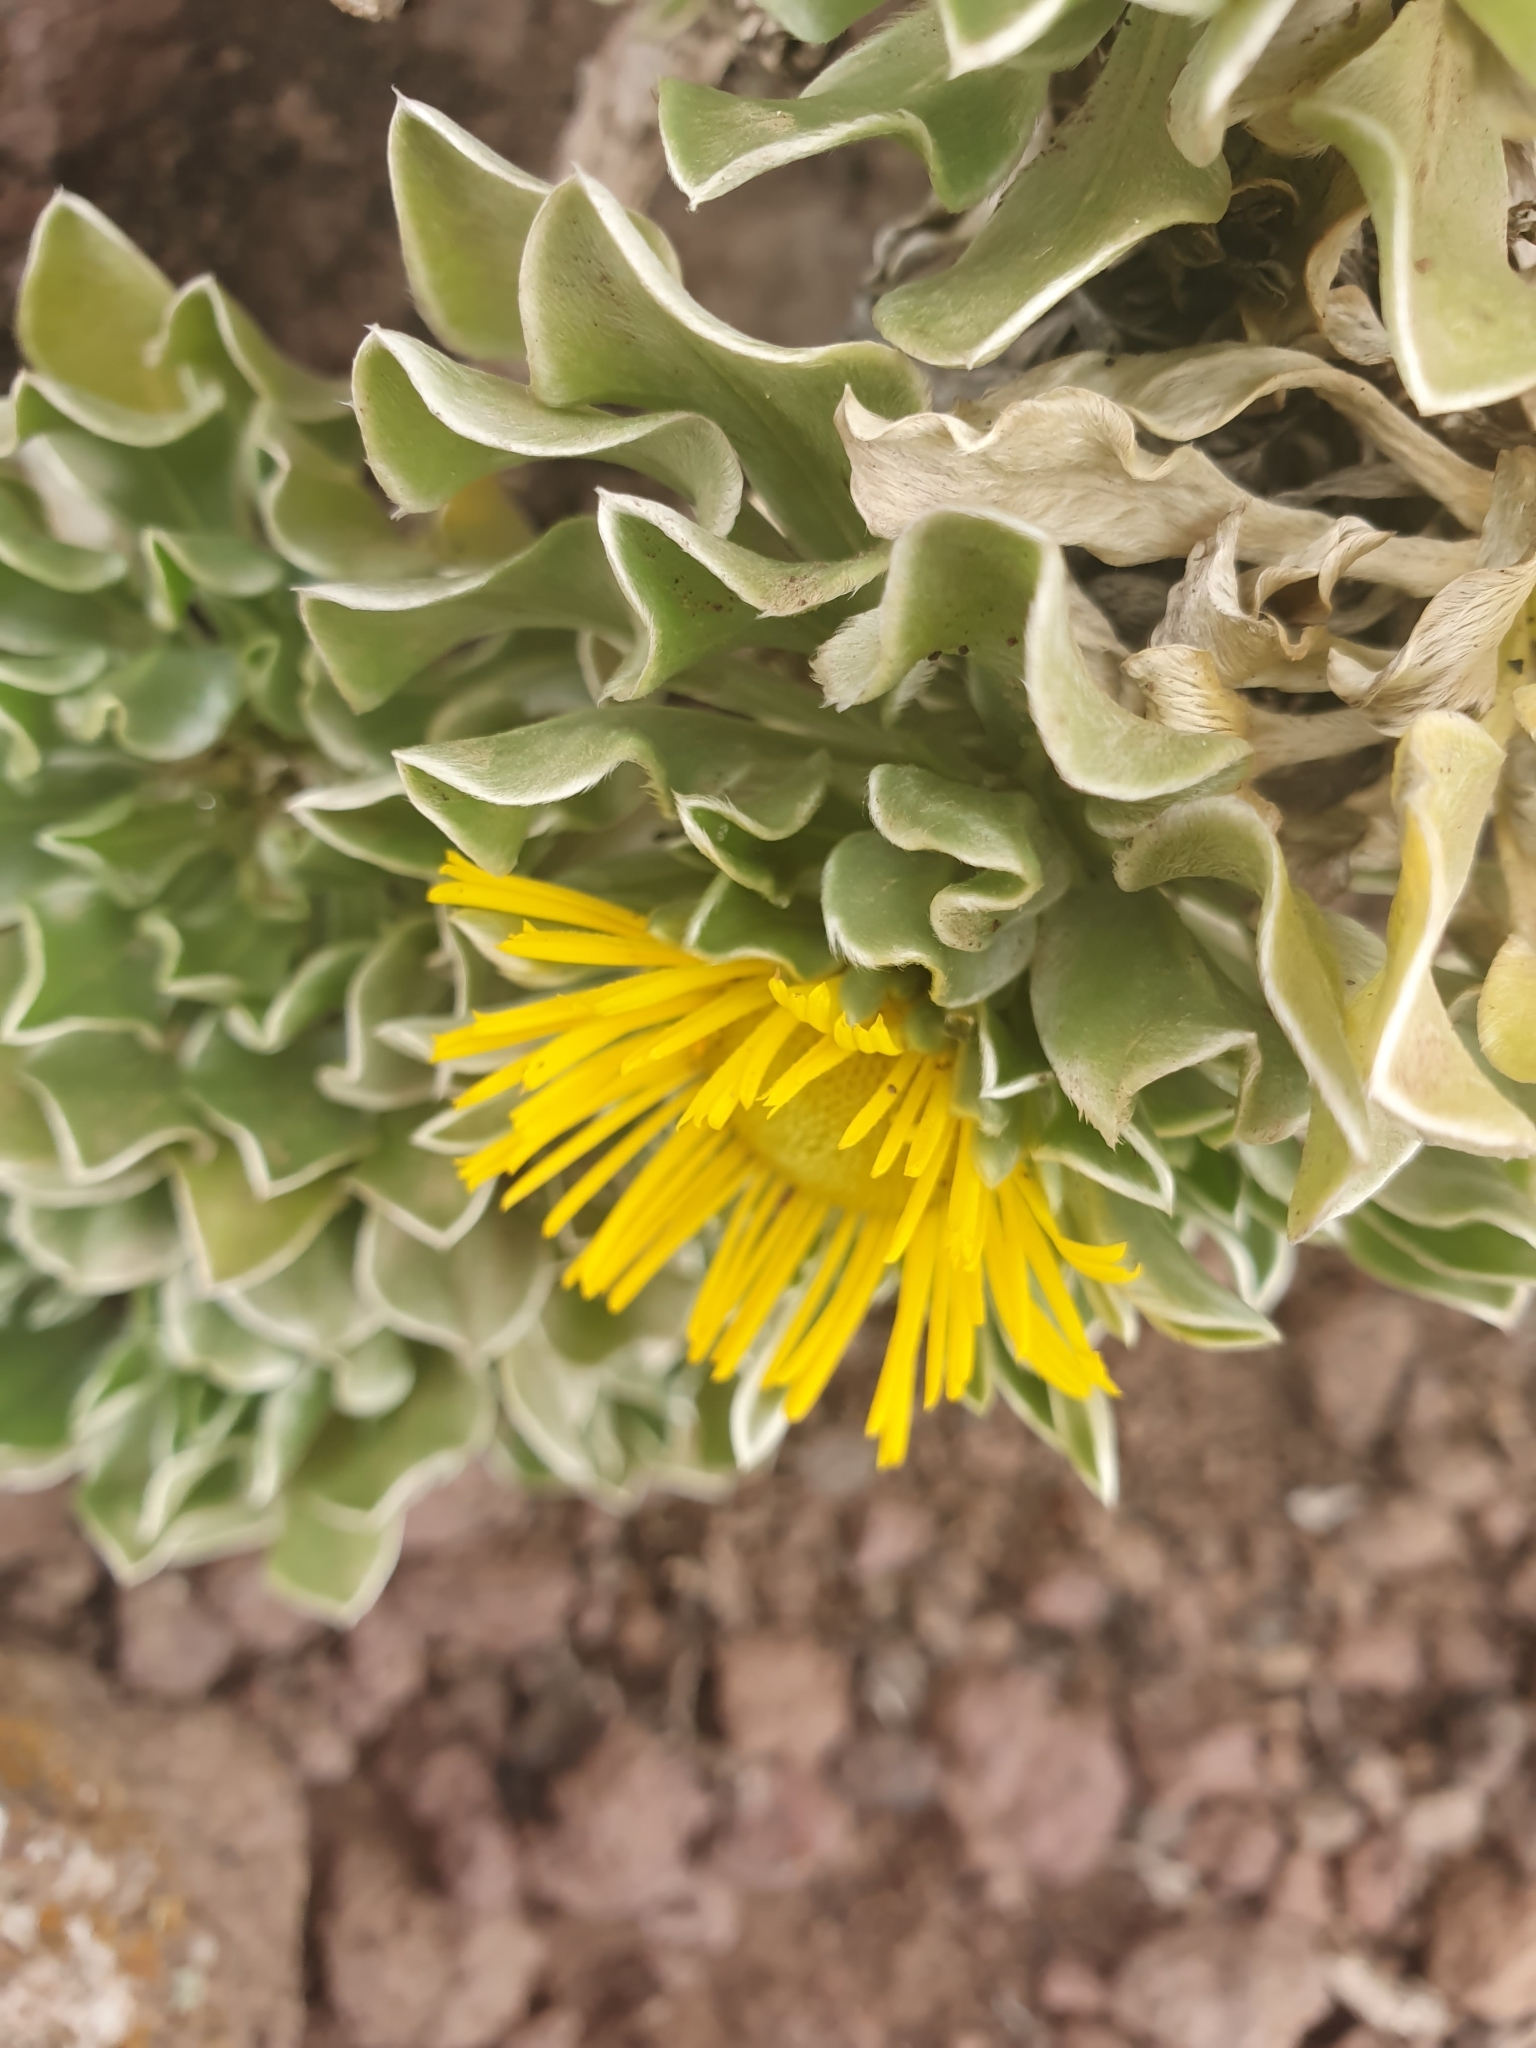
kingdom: Plantae
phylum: Tracheophyta
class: Magnoliopsida
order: Asterales
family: Asteraceae
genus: Asteriscus
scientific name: Asteriscus sericeus
